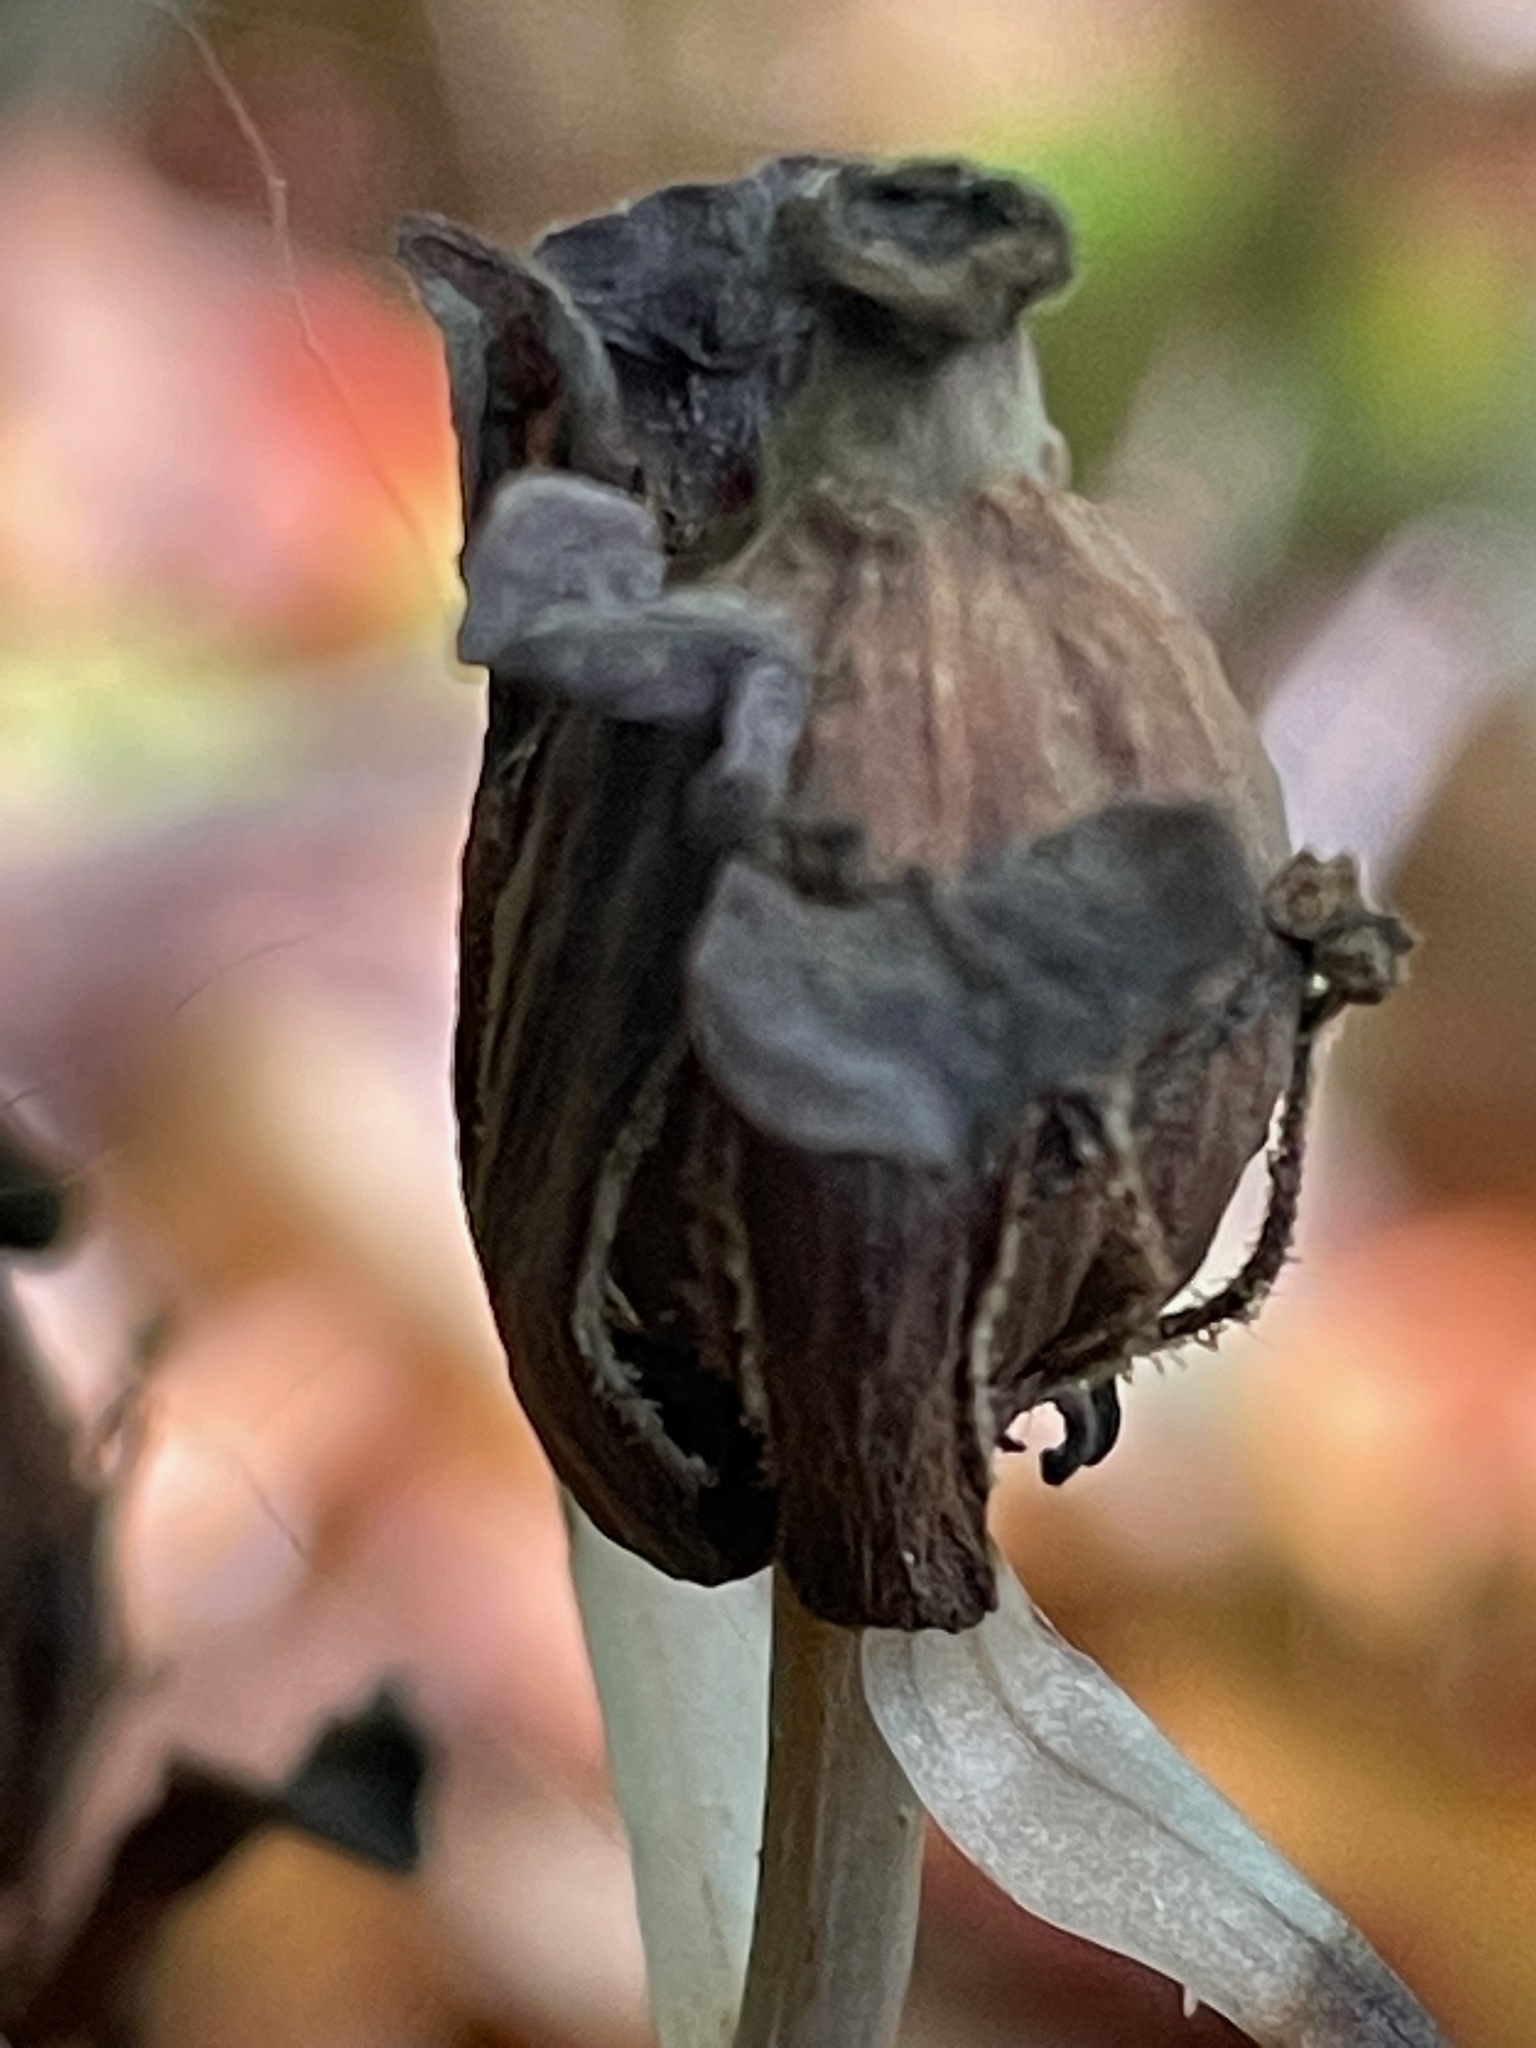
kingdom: Plantae
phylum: Tracheophyta
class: Magnoliopsida
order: Ericales
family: Ericaceae
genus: Monotropa
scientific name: Monotropa uniflora
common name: Convulsion root
